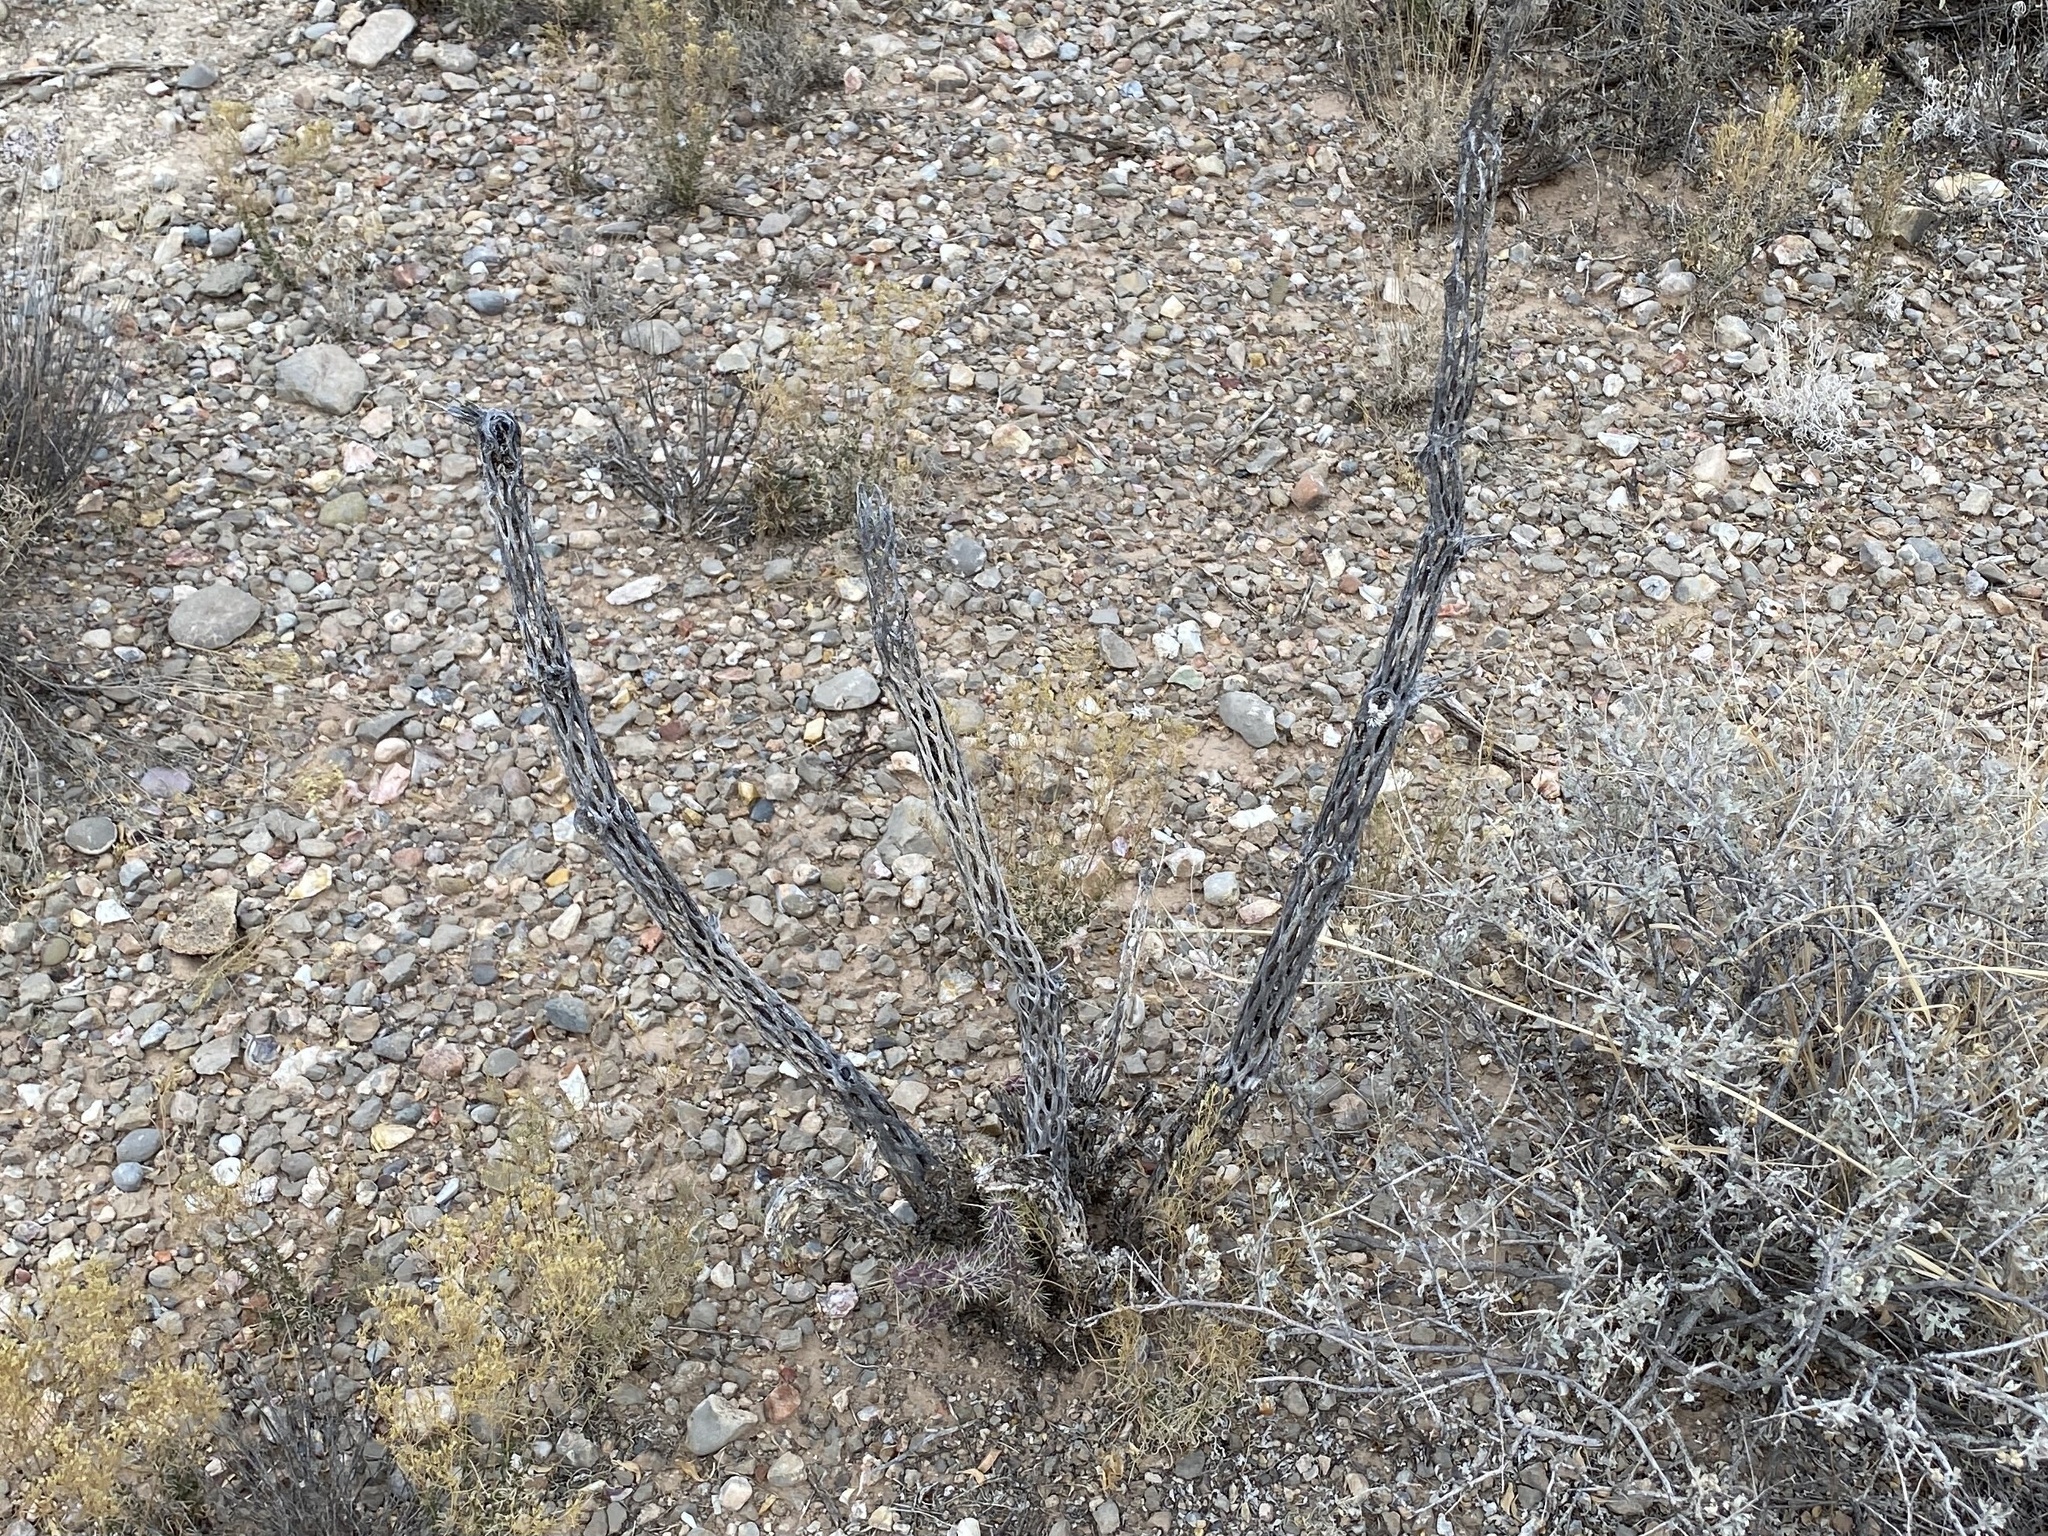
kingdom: Plantae
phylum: Tracheophyta
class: Magnoliopsida
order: Caryophyllales
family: Cactaceae
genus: Cylindropuntia
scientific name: Cylindropuntia imbricata
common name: Candelabrum cactus
